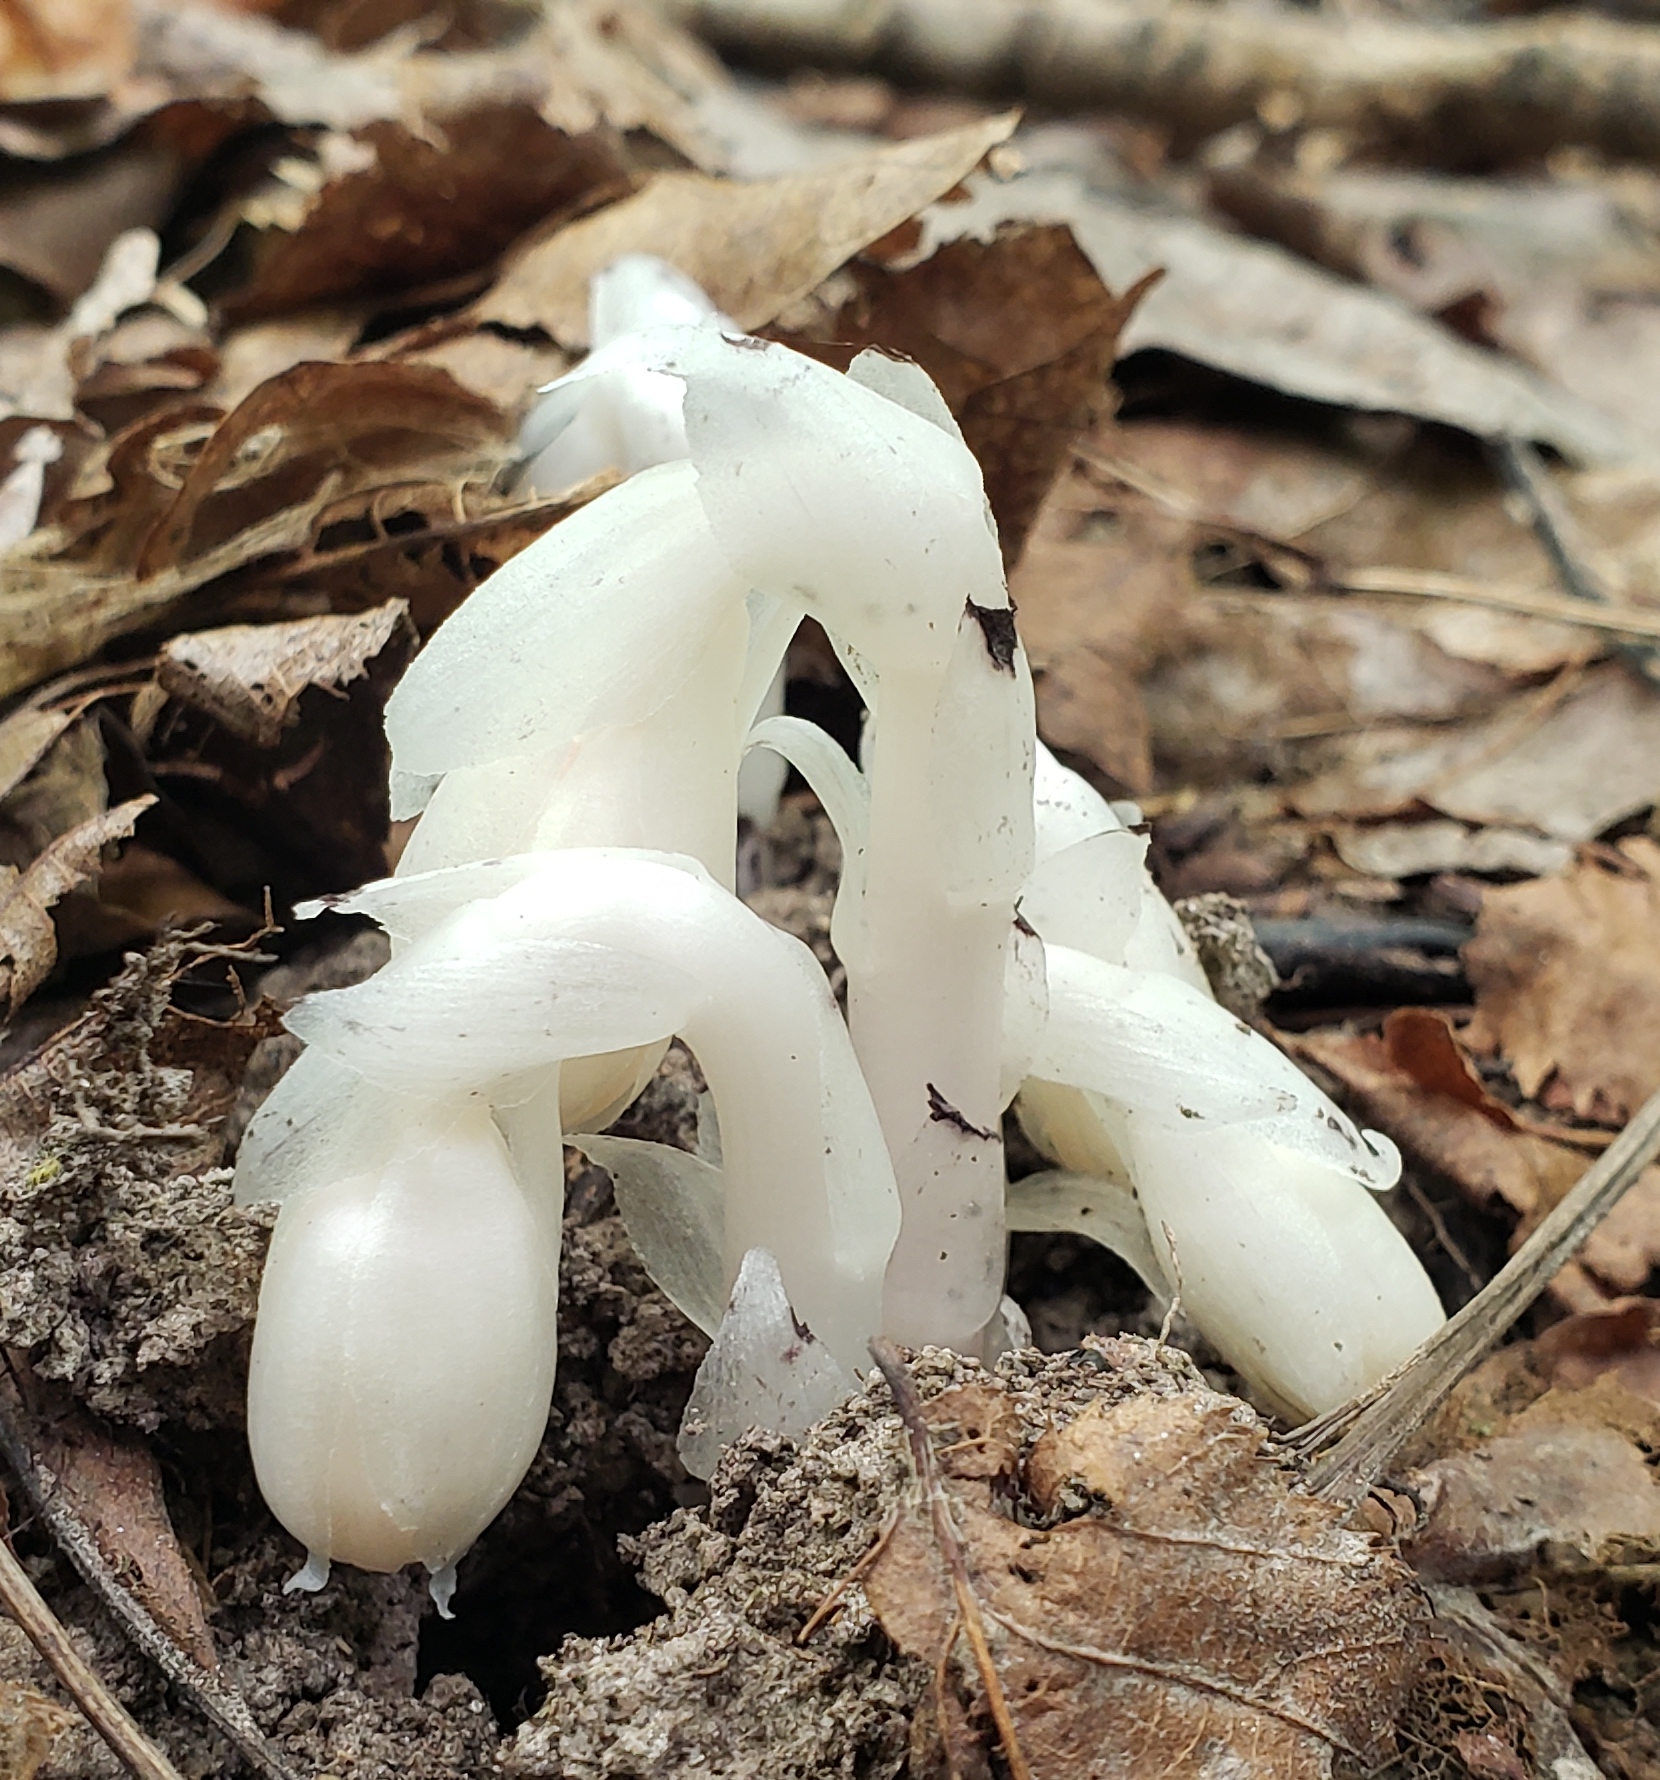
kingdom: Plantae
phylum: Tracheophyta
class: Magnoliopsida
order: Ericales
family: Ericaceae
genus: Monotropa
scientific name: Monotropa uniflora
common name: Convulsion root
